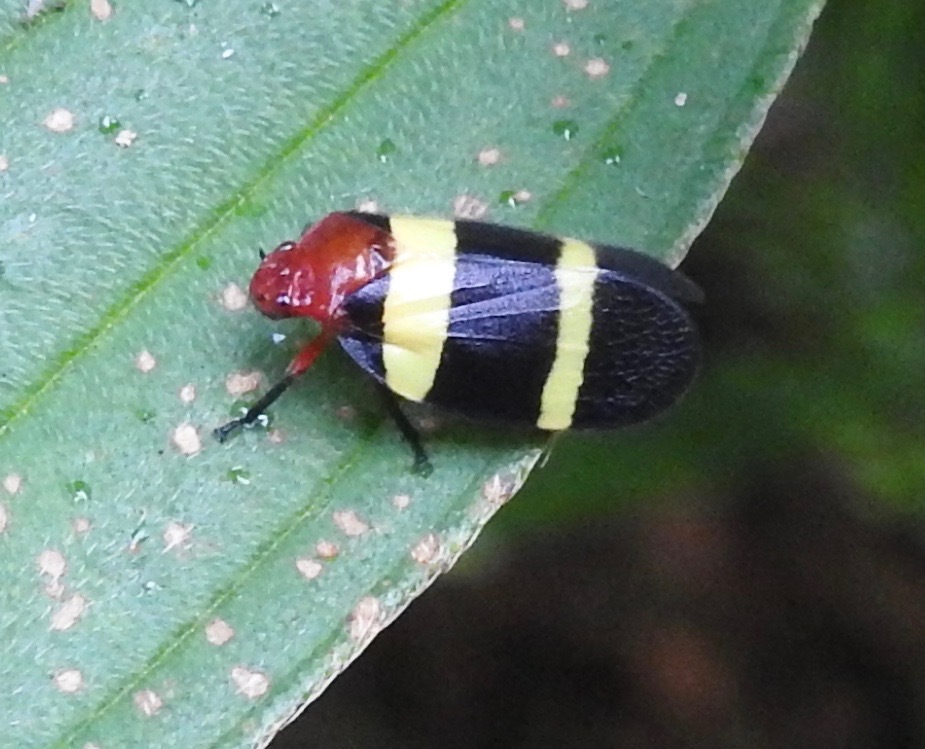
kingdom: Animalia
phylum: Arthropoda
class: Insecta
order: Hemiptera
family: Cercopidae
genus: Sphenorhina
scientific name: Sphenorhina rubra
